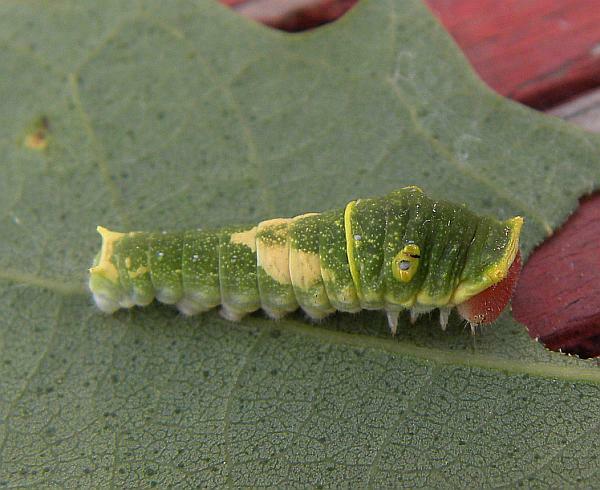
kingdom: Animalia
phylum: Arthropoda
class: Insecta
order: Lepidoptera
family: Papilionidae
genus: Papilio
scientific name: Papilio glaucus
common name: Tiger swallowtail
